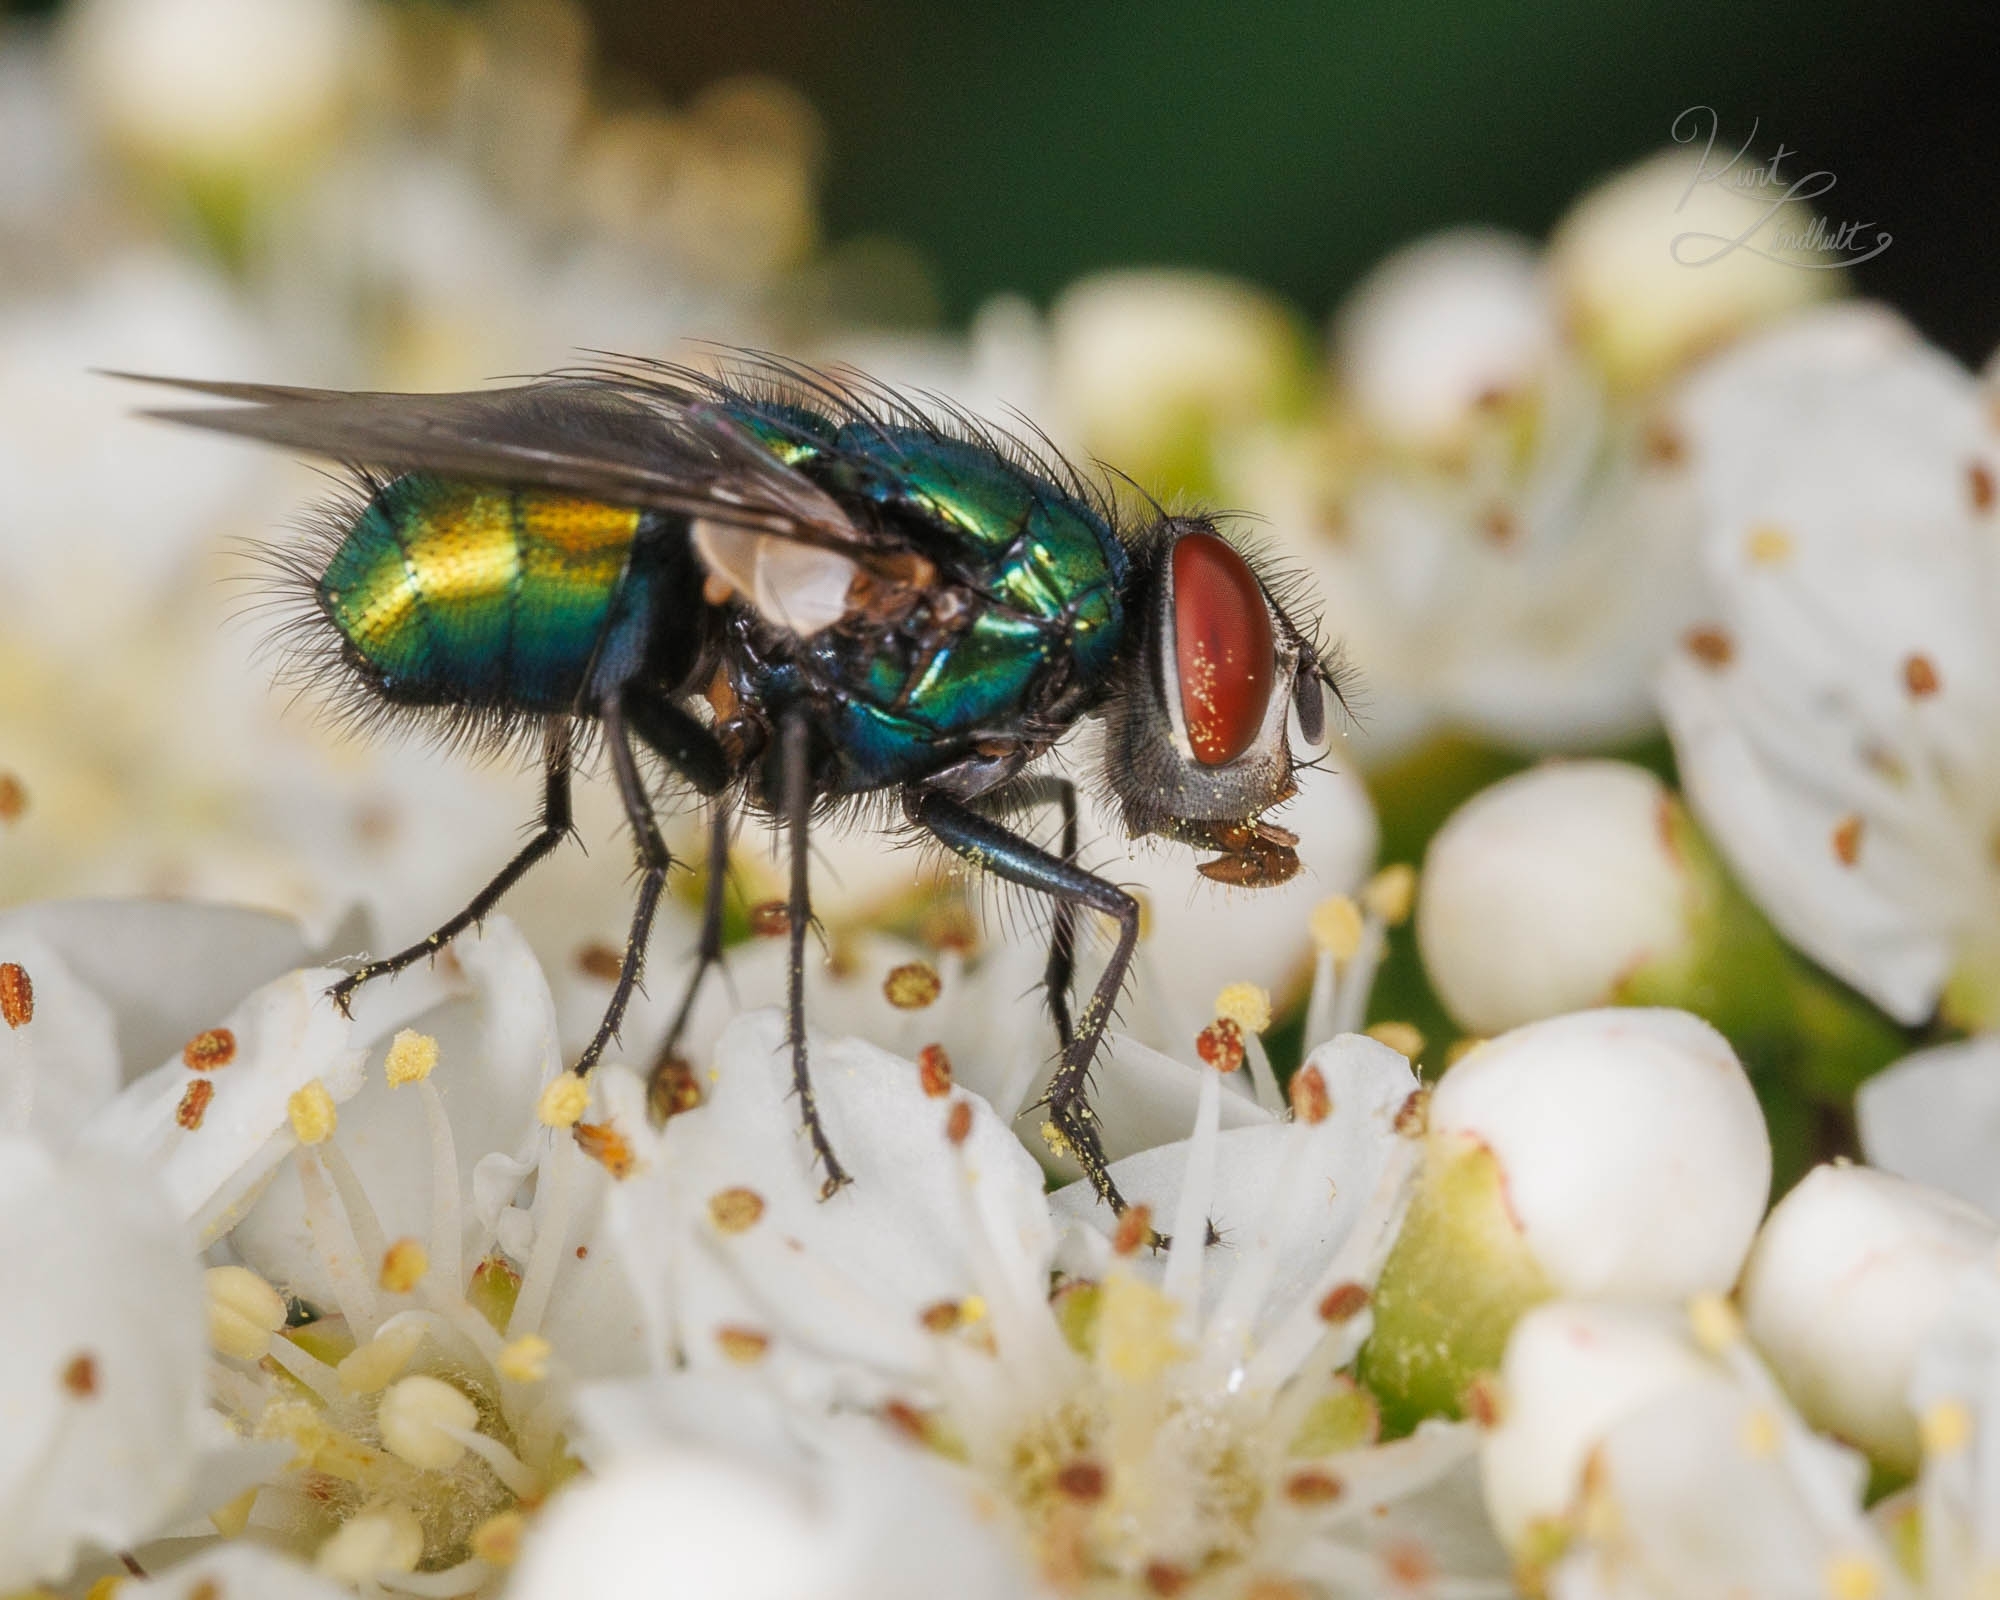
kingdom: Animalia
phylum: Arthropoda
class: Insecta
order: Diptera
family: Calliphoridae
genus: Lucilia
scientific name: Lucilia sericata
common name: Blow fly
